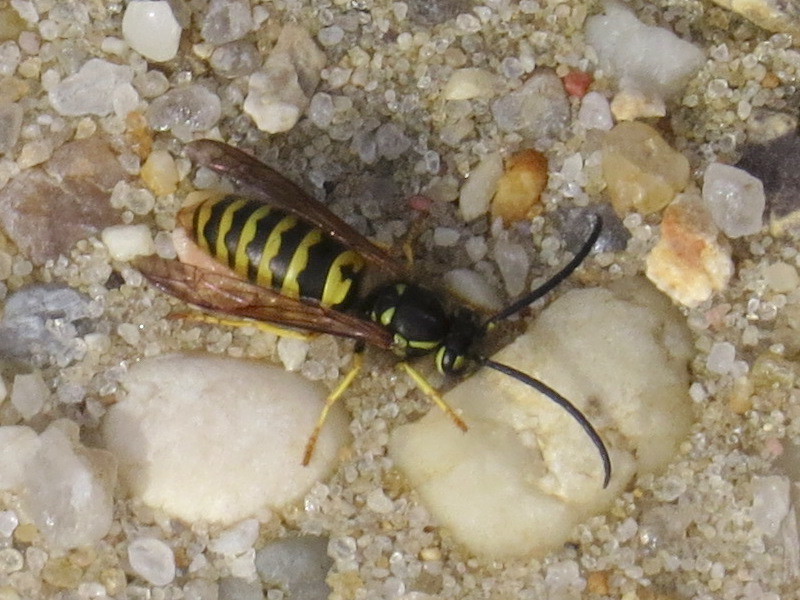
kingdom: Animalia
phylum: Arthropoda
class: Insecta
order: Hymenoptera
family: Vespidae
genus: Vespula
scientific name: Vespula maculifrons
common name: Eastern yellowjacket
